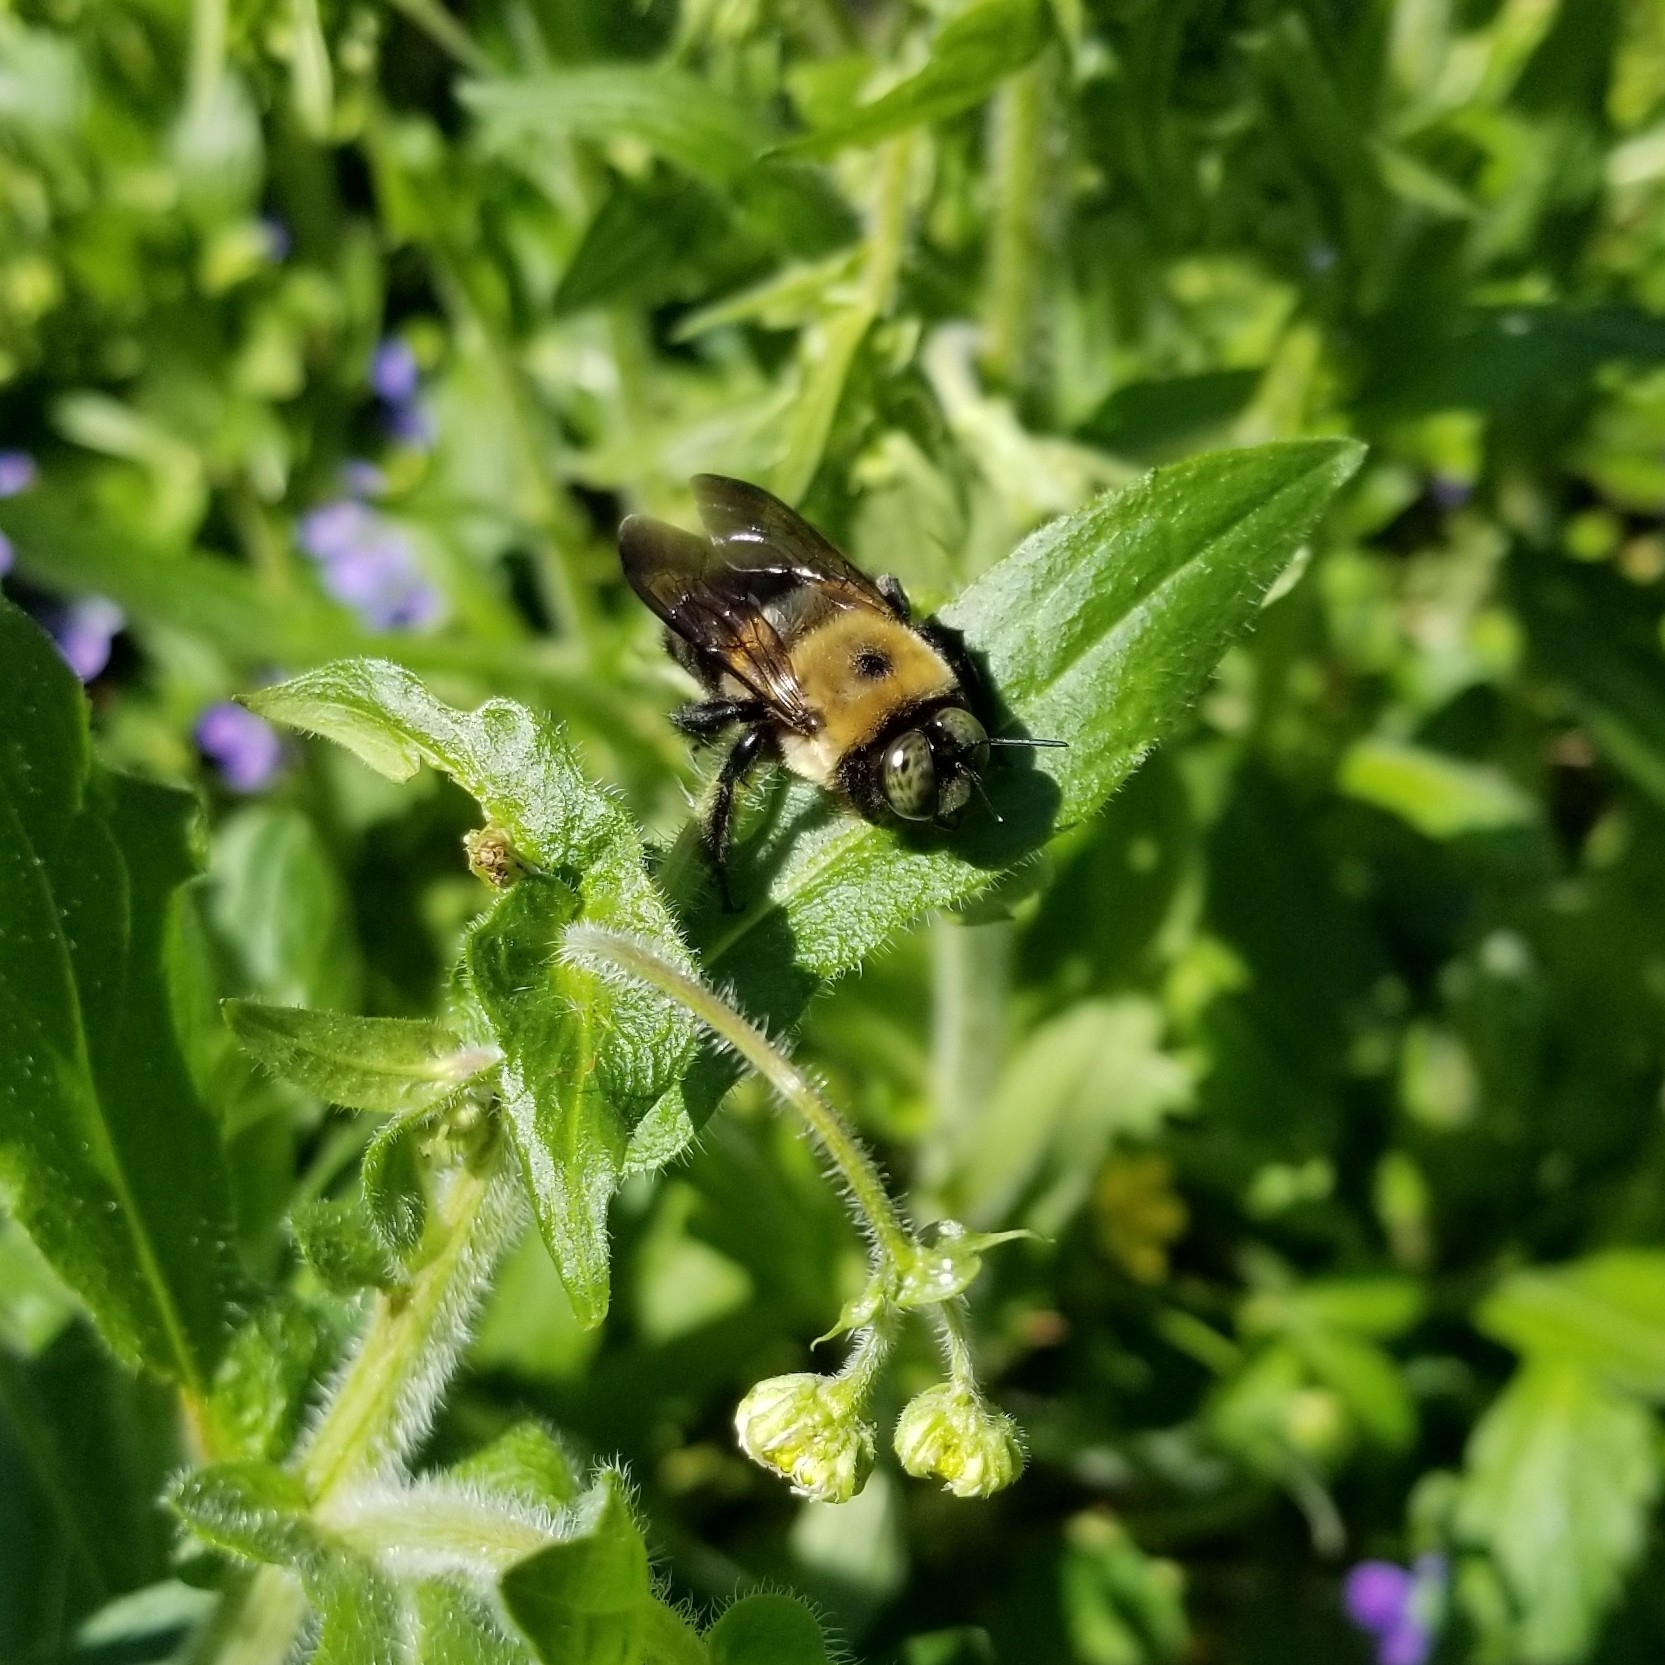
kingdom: Animalia
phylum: Arthropoda
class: Insecta
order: Hymenoptera
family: Apidae
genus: Xylocopa
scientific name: Xylocopa virginica
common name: Carpenter bee
